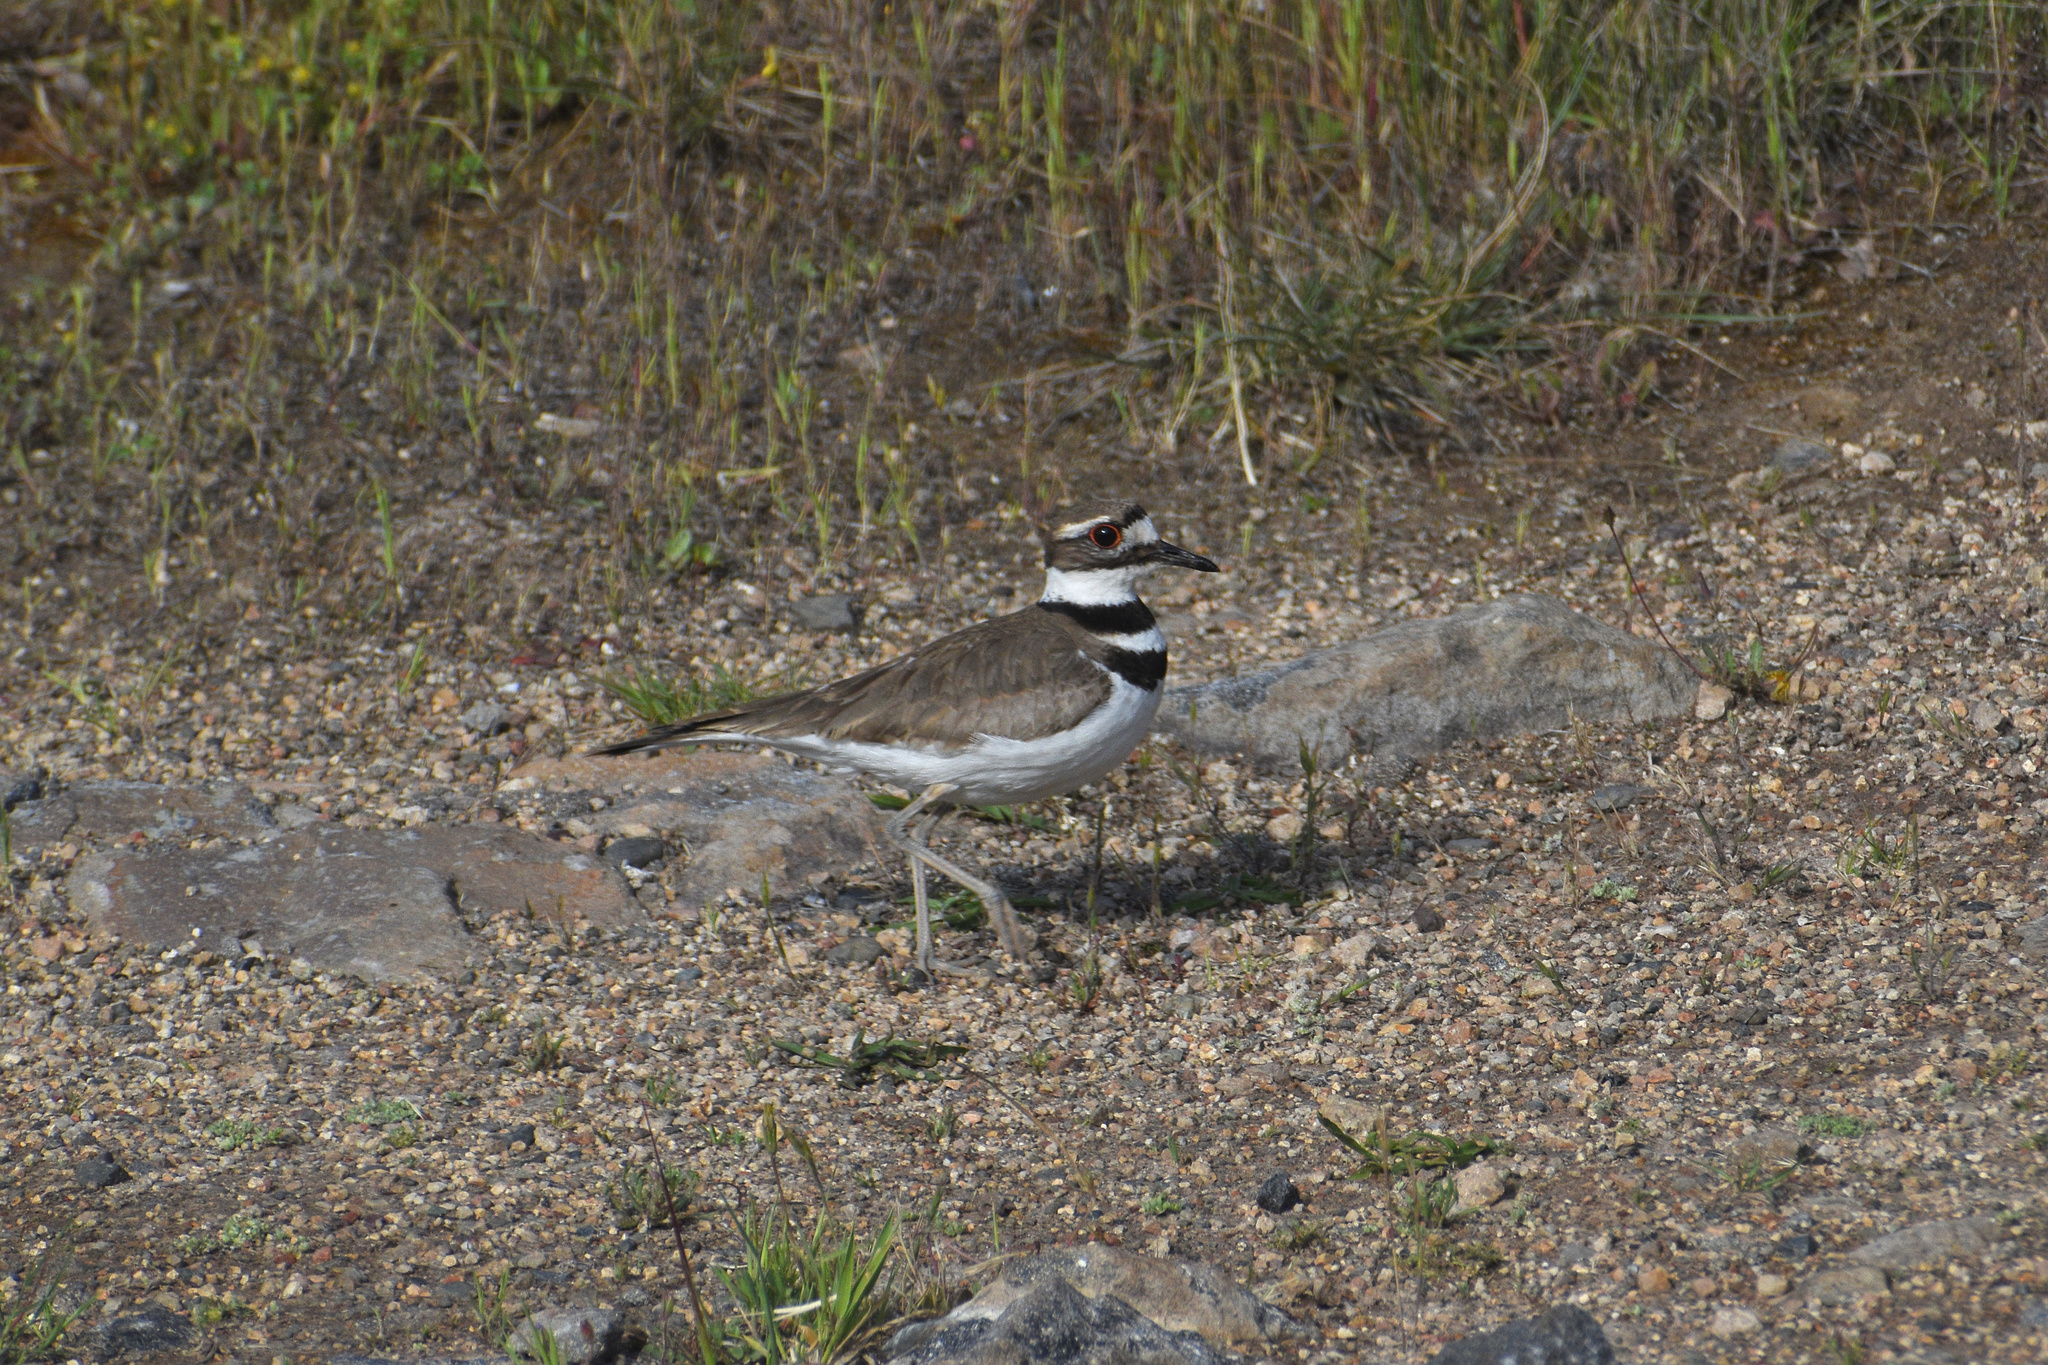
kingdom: Animalia
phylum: Chordata
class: Aves
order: Charadriiformes
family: Charadriidae
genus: Charadrius
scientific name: Charadrius vociferus
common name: Killdeer
